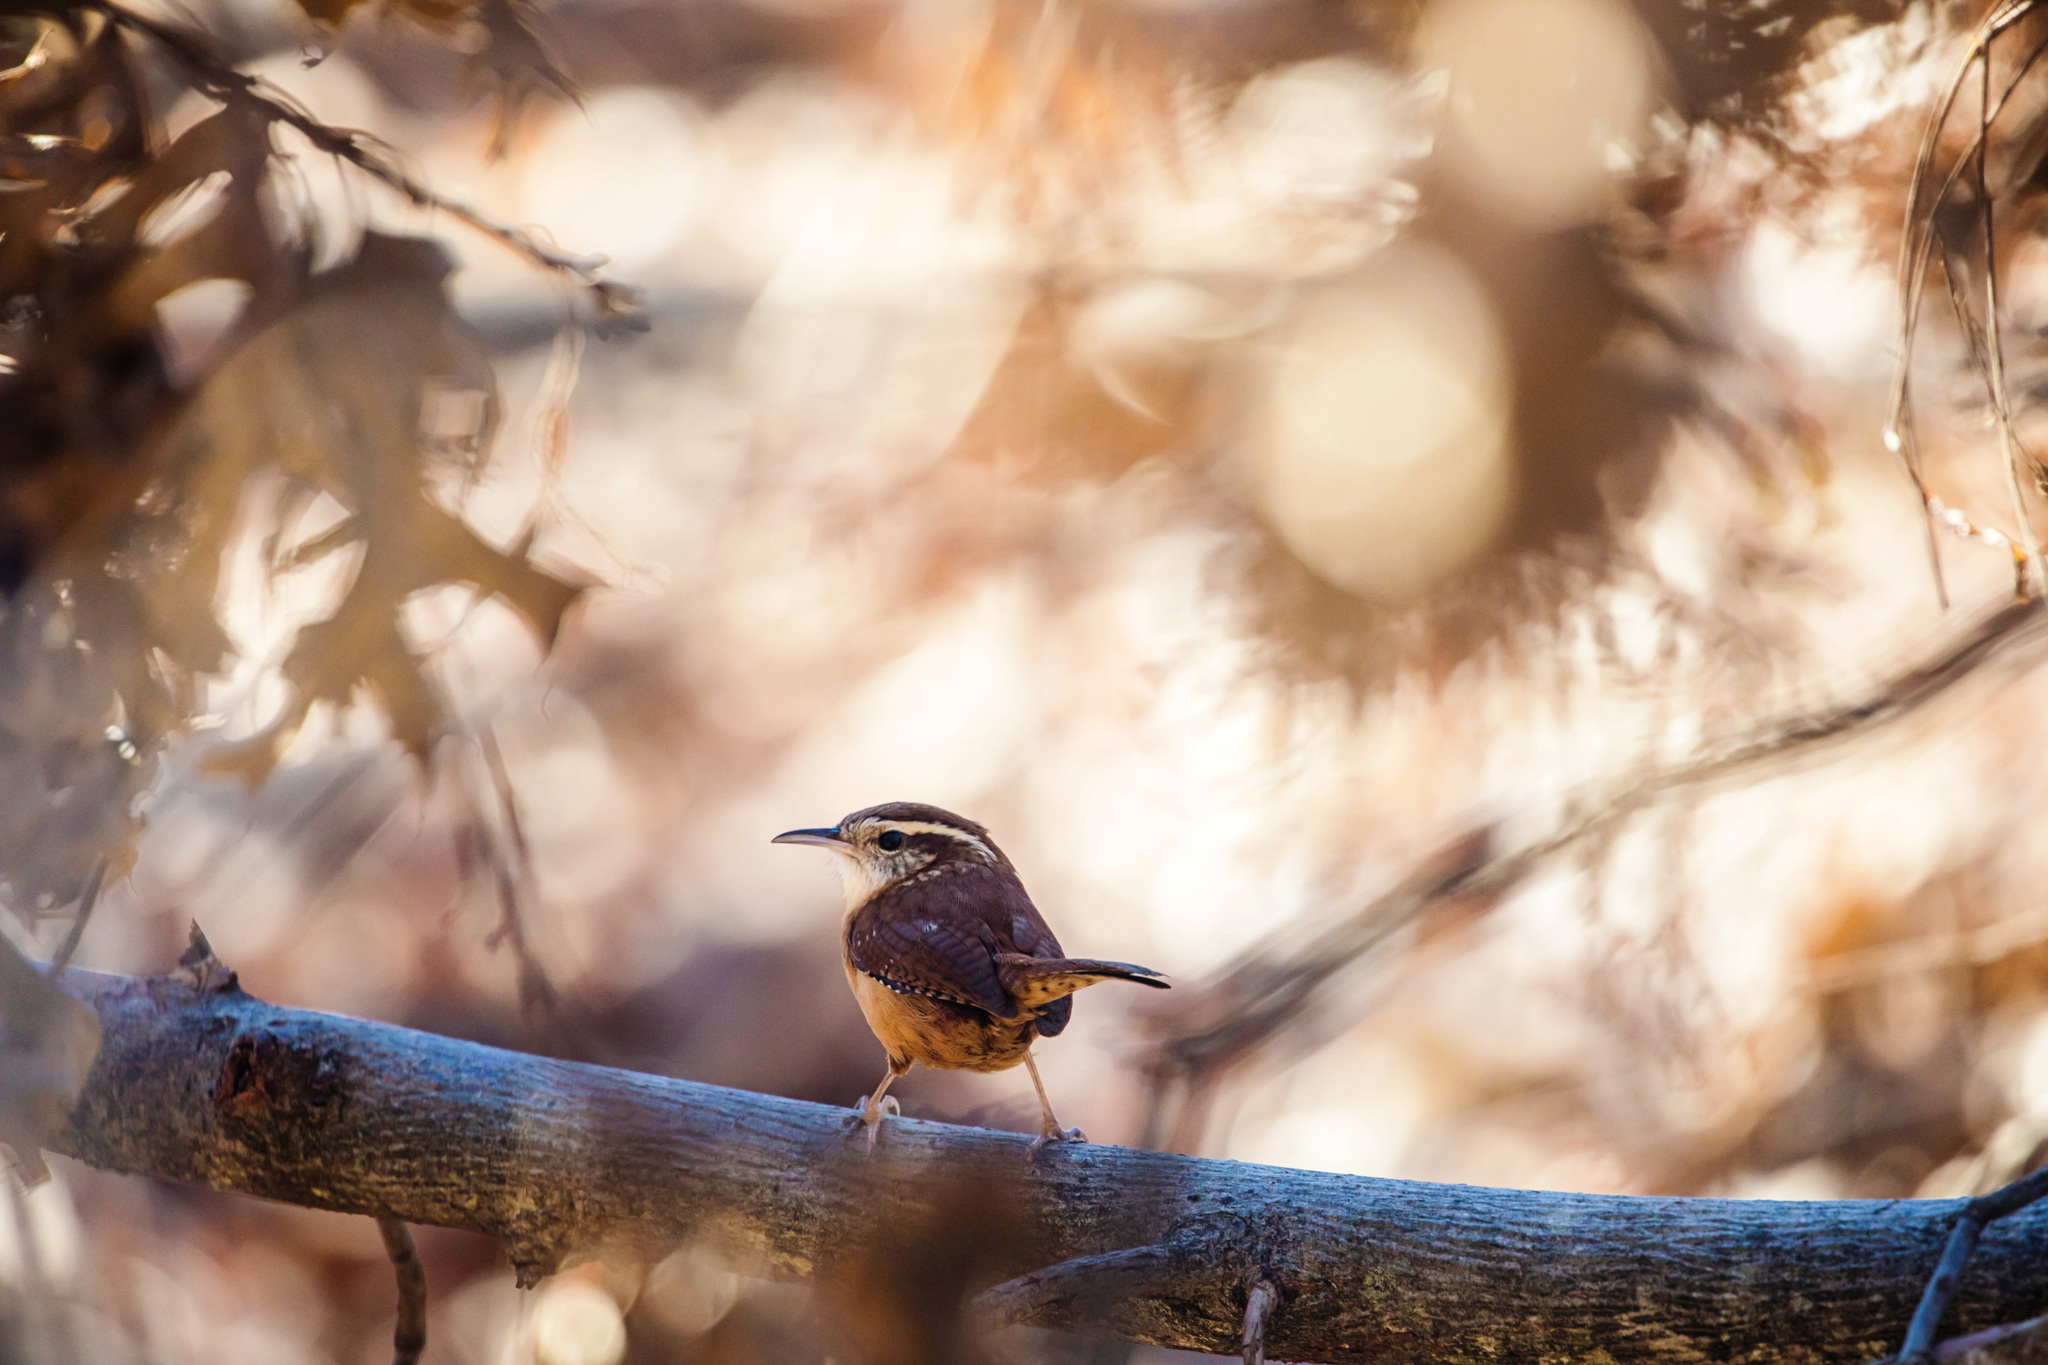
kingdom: Animalia
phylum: Chordata
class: Aves
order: Passeriformes
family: Troglodytidae
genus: Thryothorus
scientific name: Thryothorus ludovicianus
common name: Carolina wren
